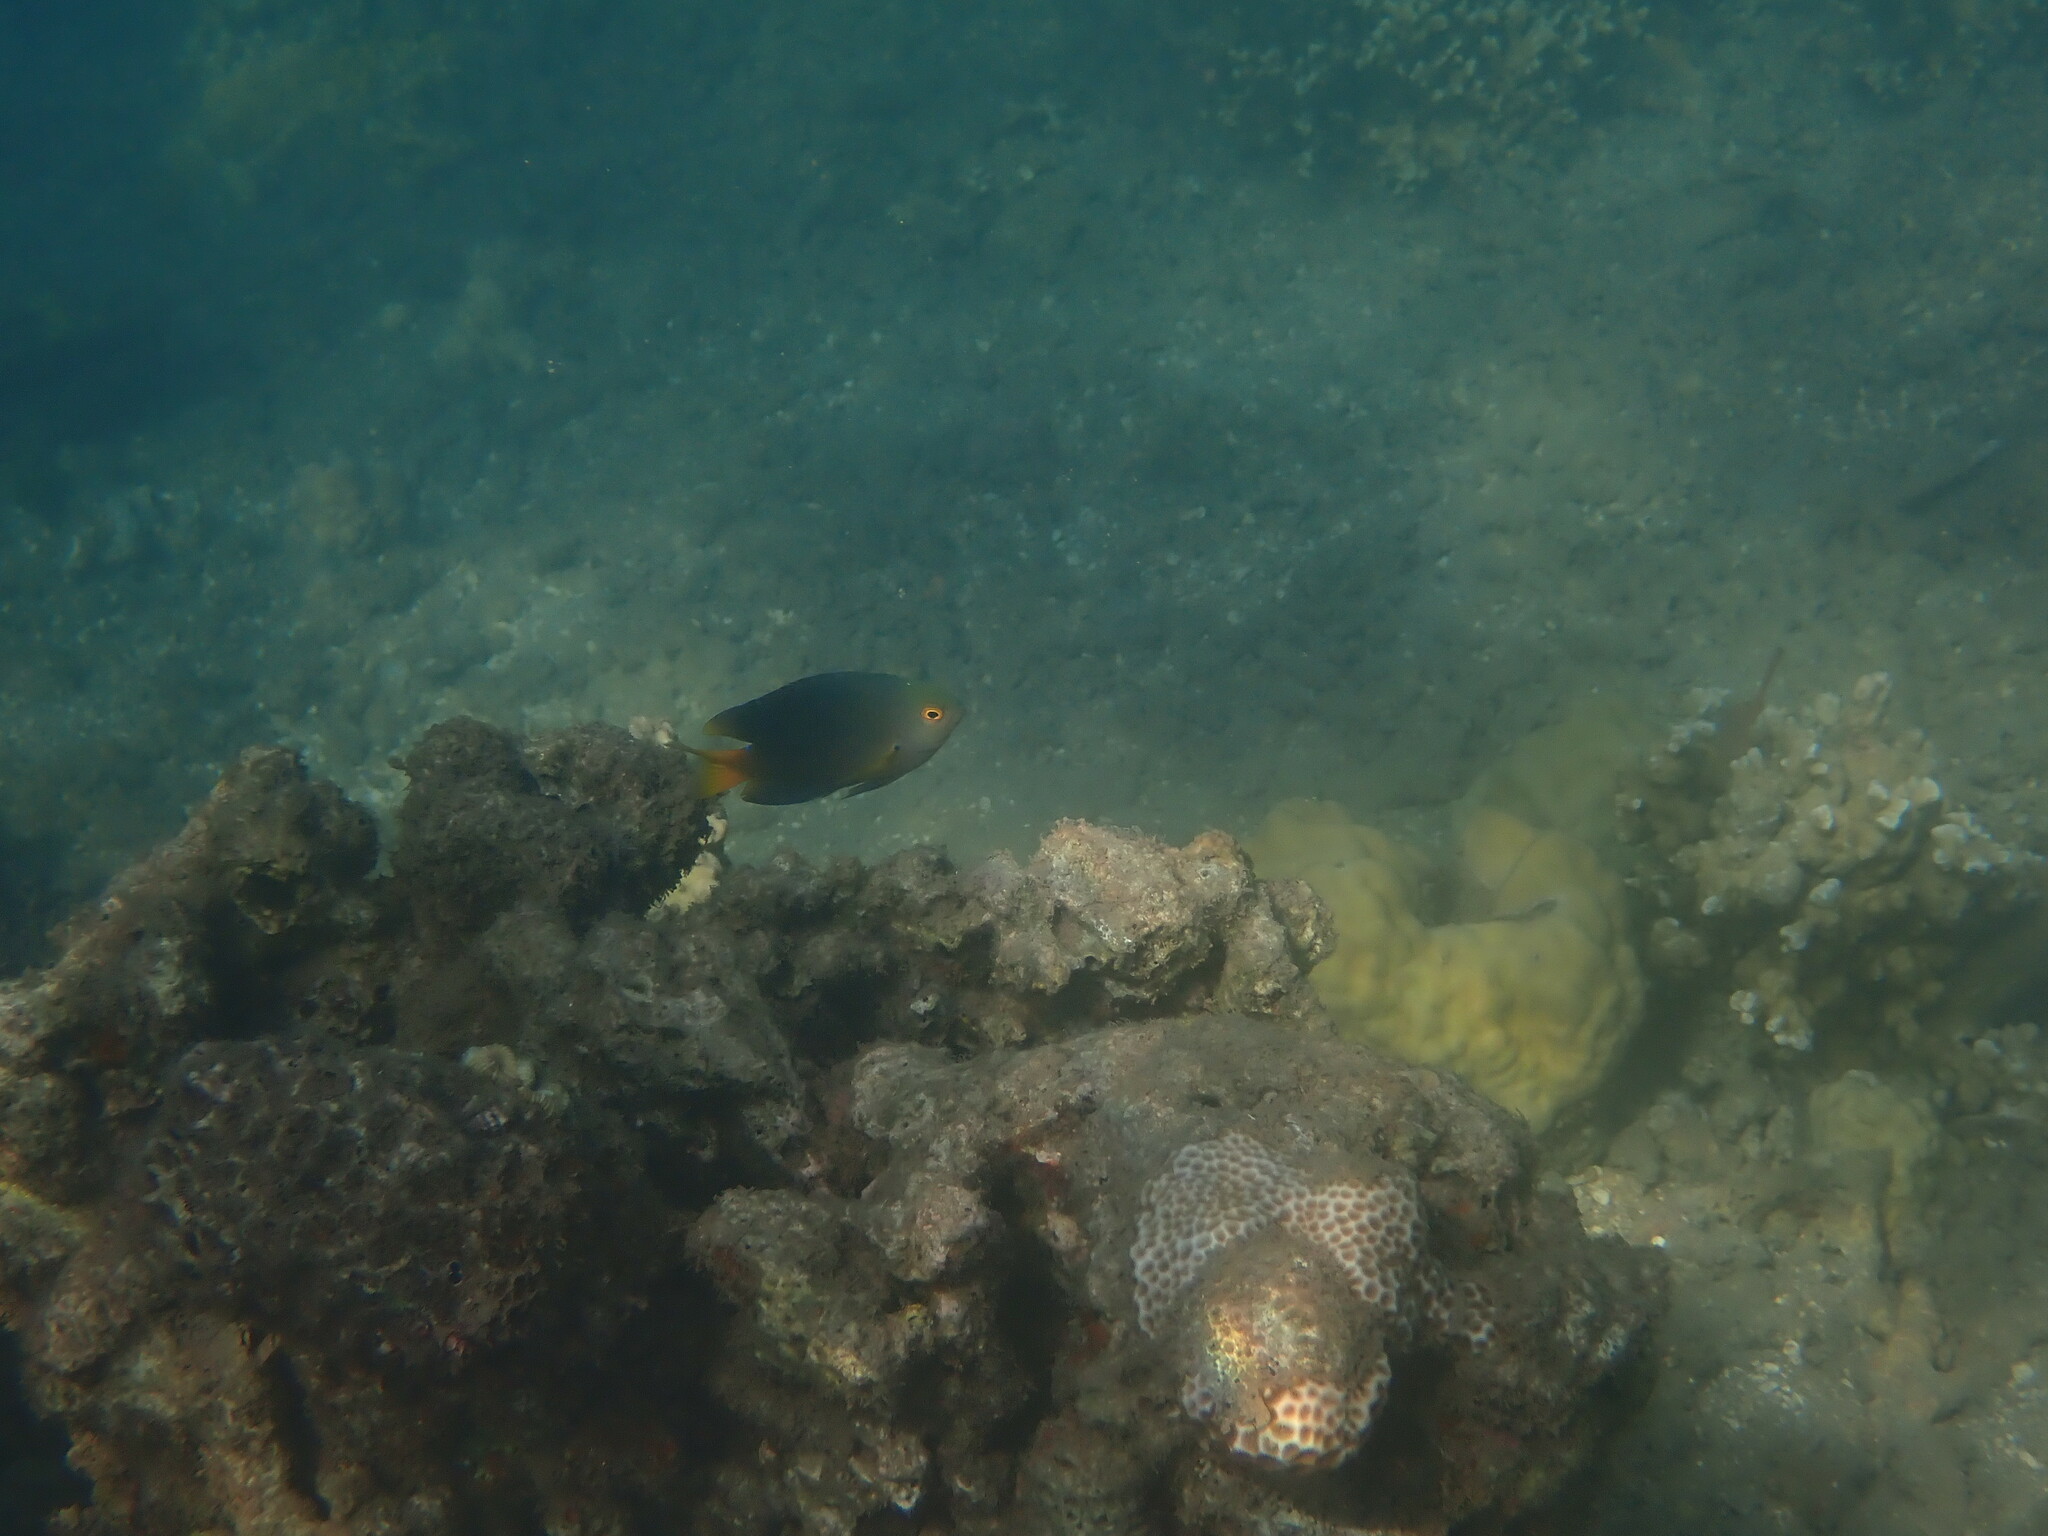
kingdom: Animalia
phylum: Chordata
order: Perciformes
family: Pomacentridae
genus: Pomacentrus
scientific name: Pomacentrus maafu
